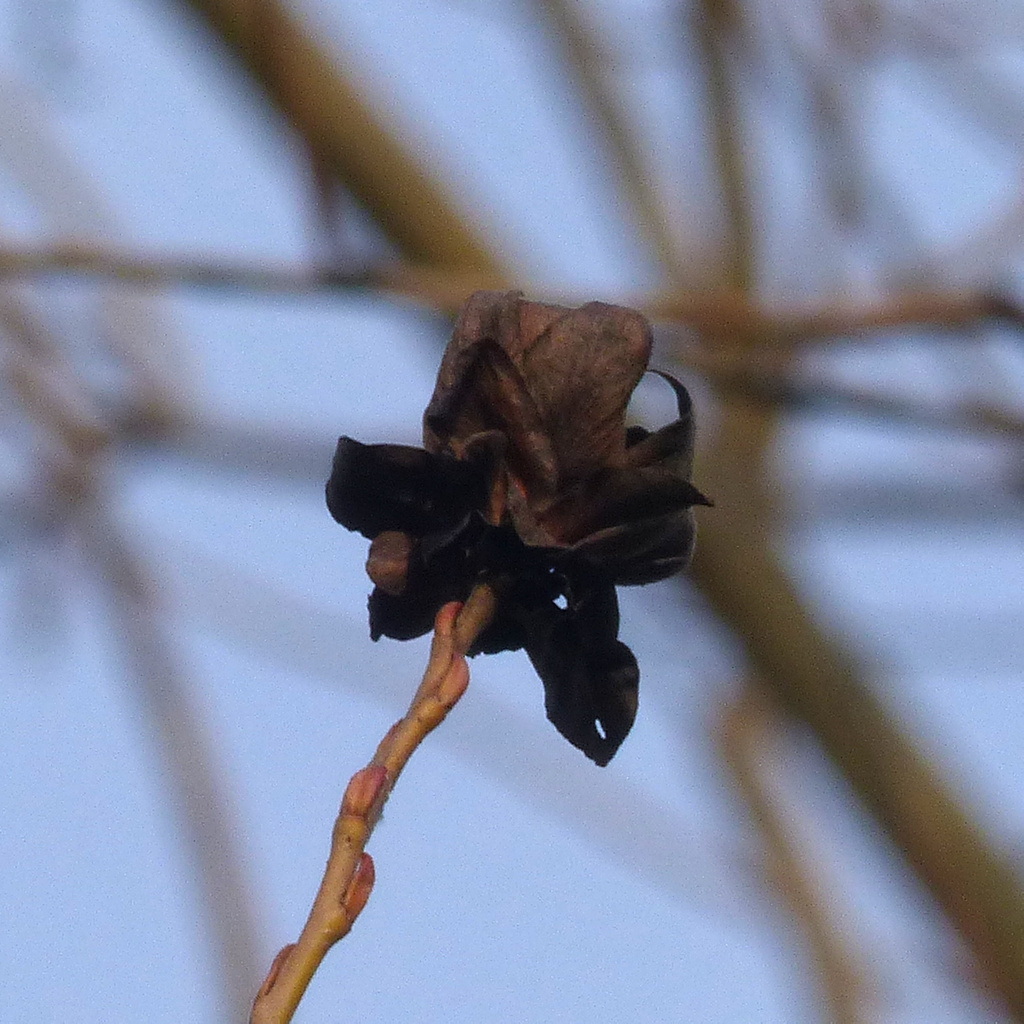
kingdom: Animalia
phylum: Arthropoda
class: Insecta
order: Diptera
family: Cecidomyiidae
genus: Rabdophaga
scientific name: Rabdophaga rosaria
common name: Willow rose gall midge
